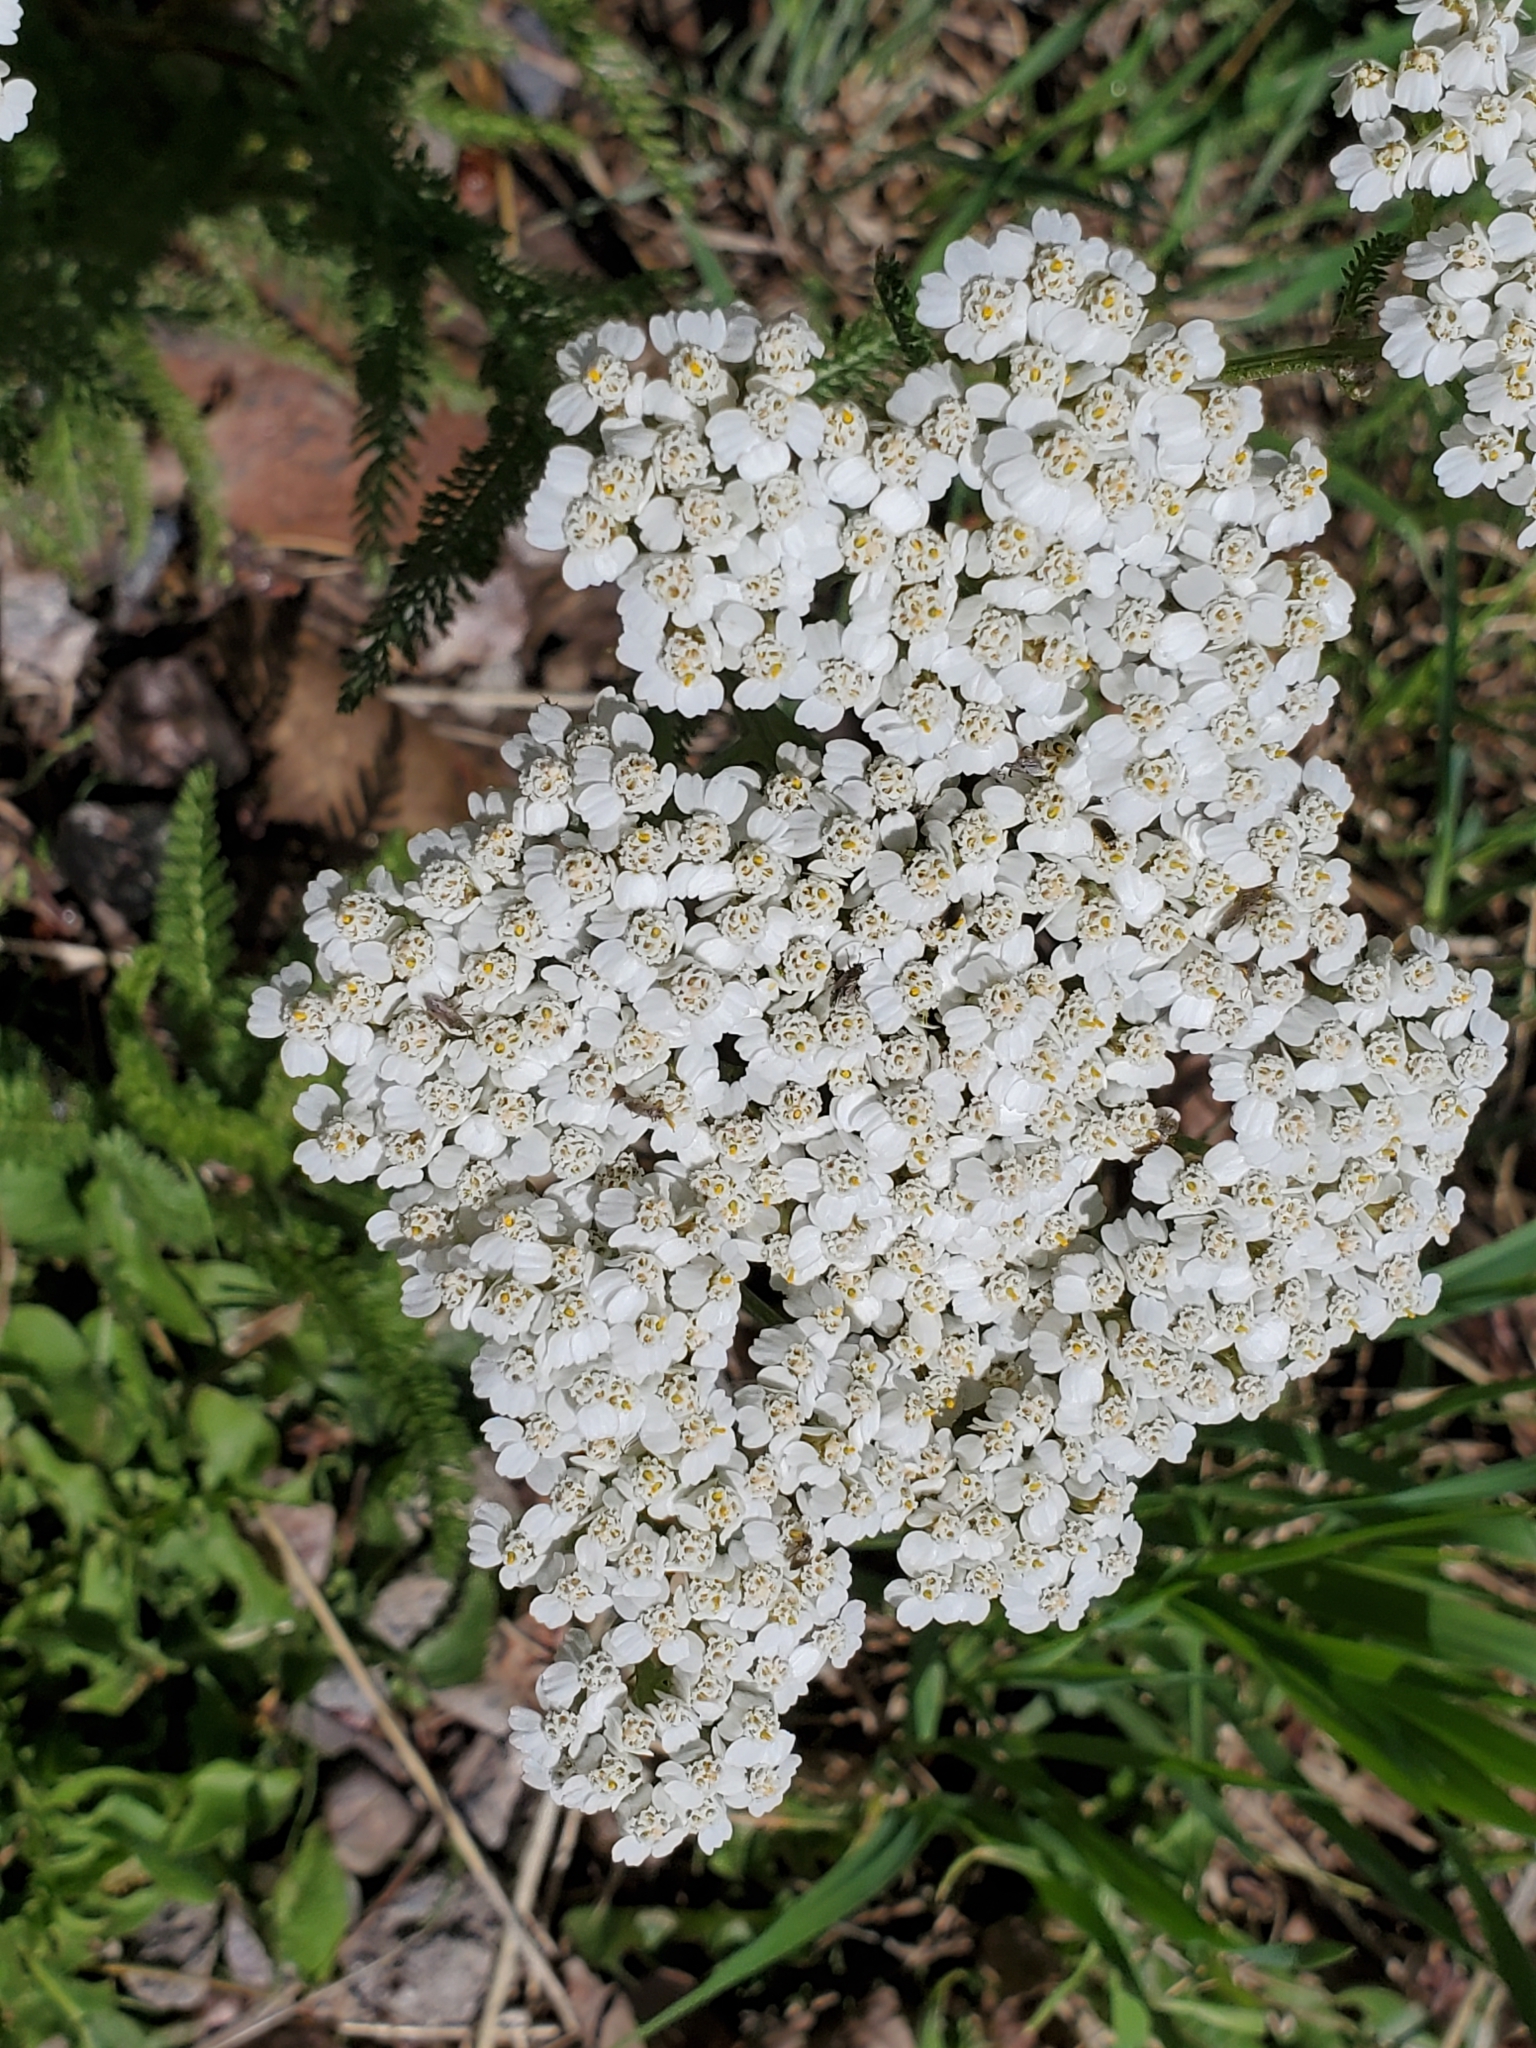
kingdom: Plantae
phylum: Tracheophyta
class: Magnoliopsida
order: Asterales
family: Asteraceae
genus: Achillea
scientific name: Achillea millefolium
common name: Yarrow
